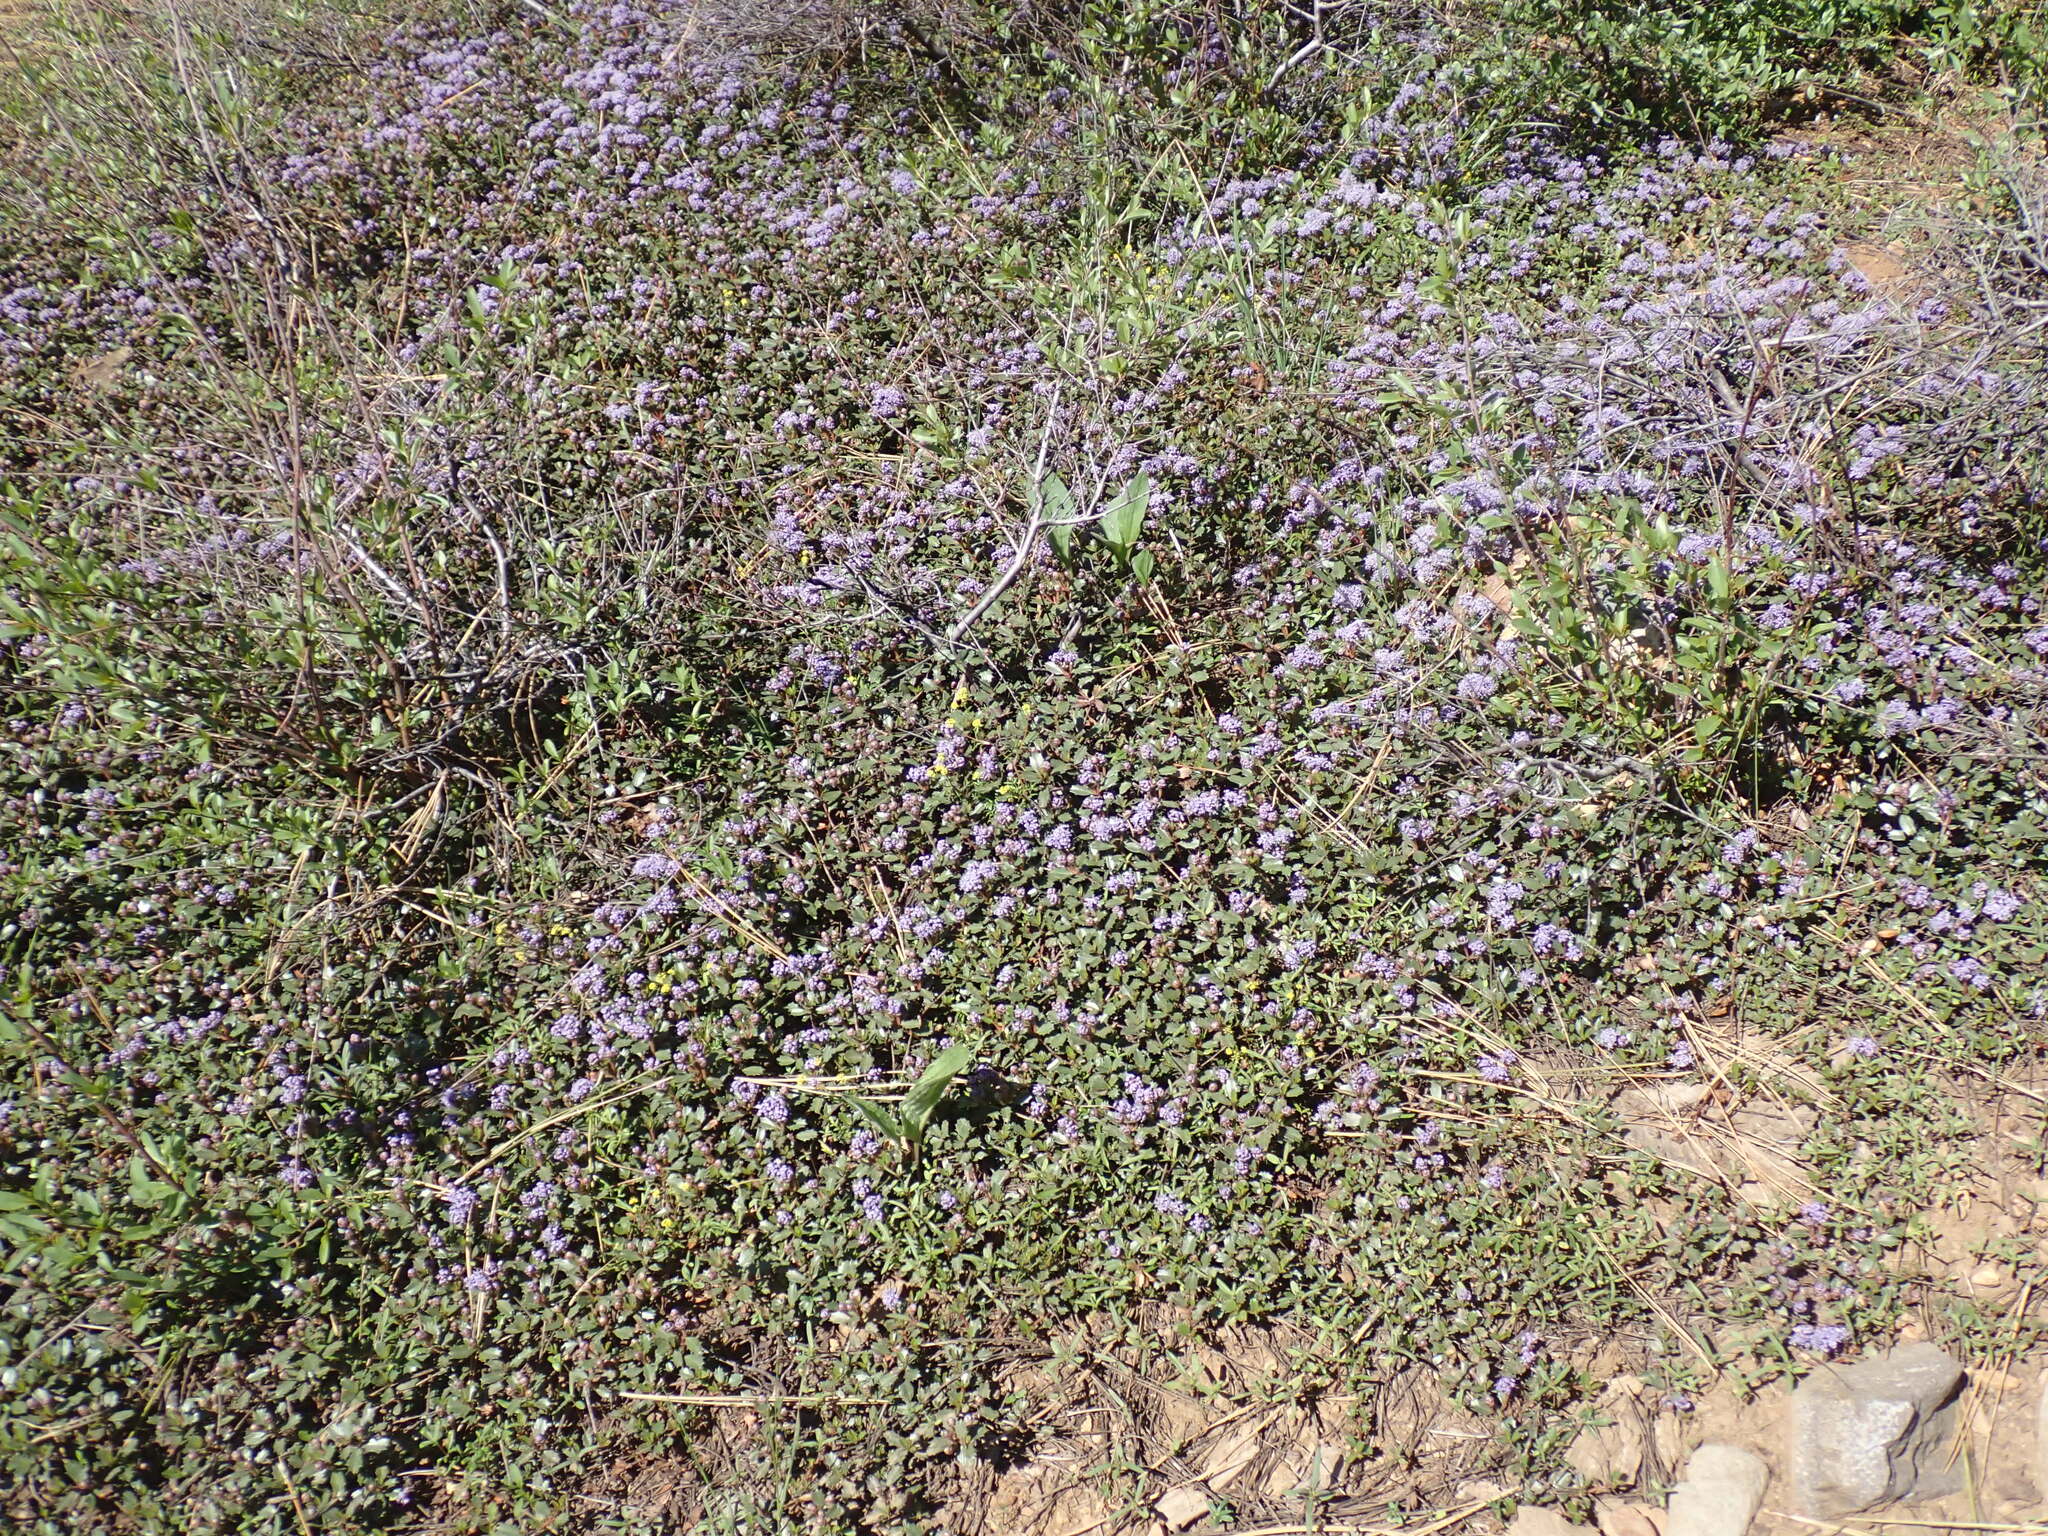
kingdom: Plantae
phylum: Tracheophyta
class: Magnoliopsida
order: Rosales
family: Rhamnaceae
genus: Ceanothus
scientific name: Ceanothus prostratus
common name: Mahala-mat
